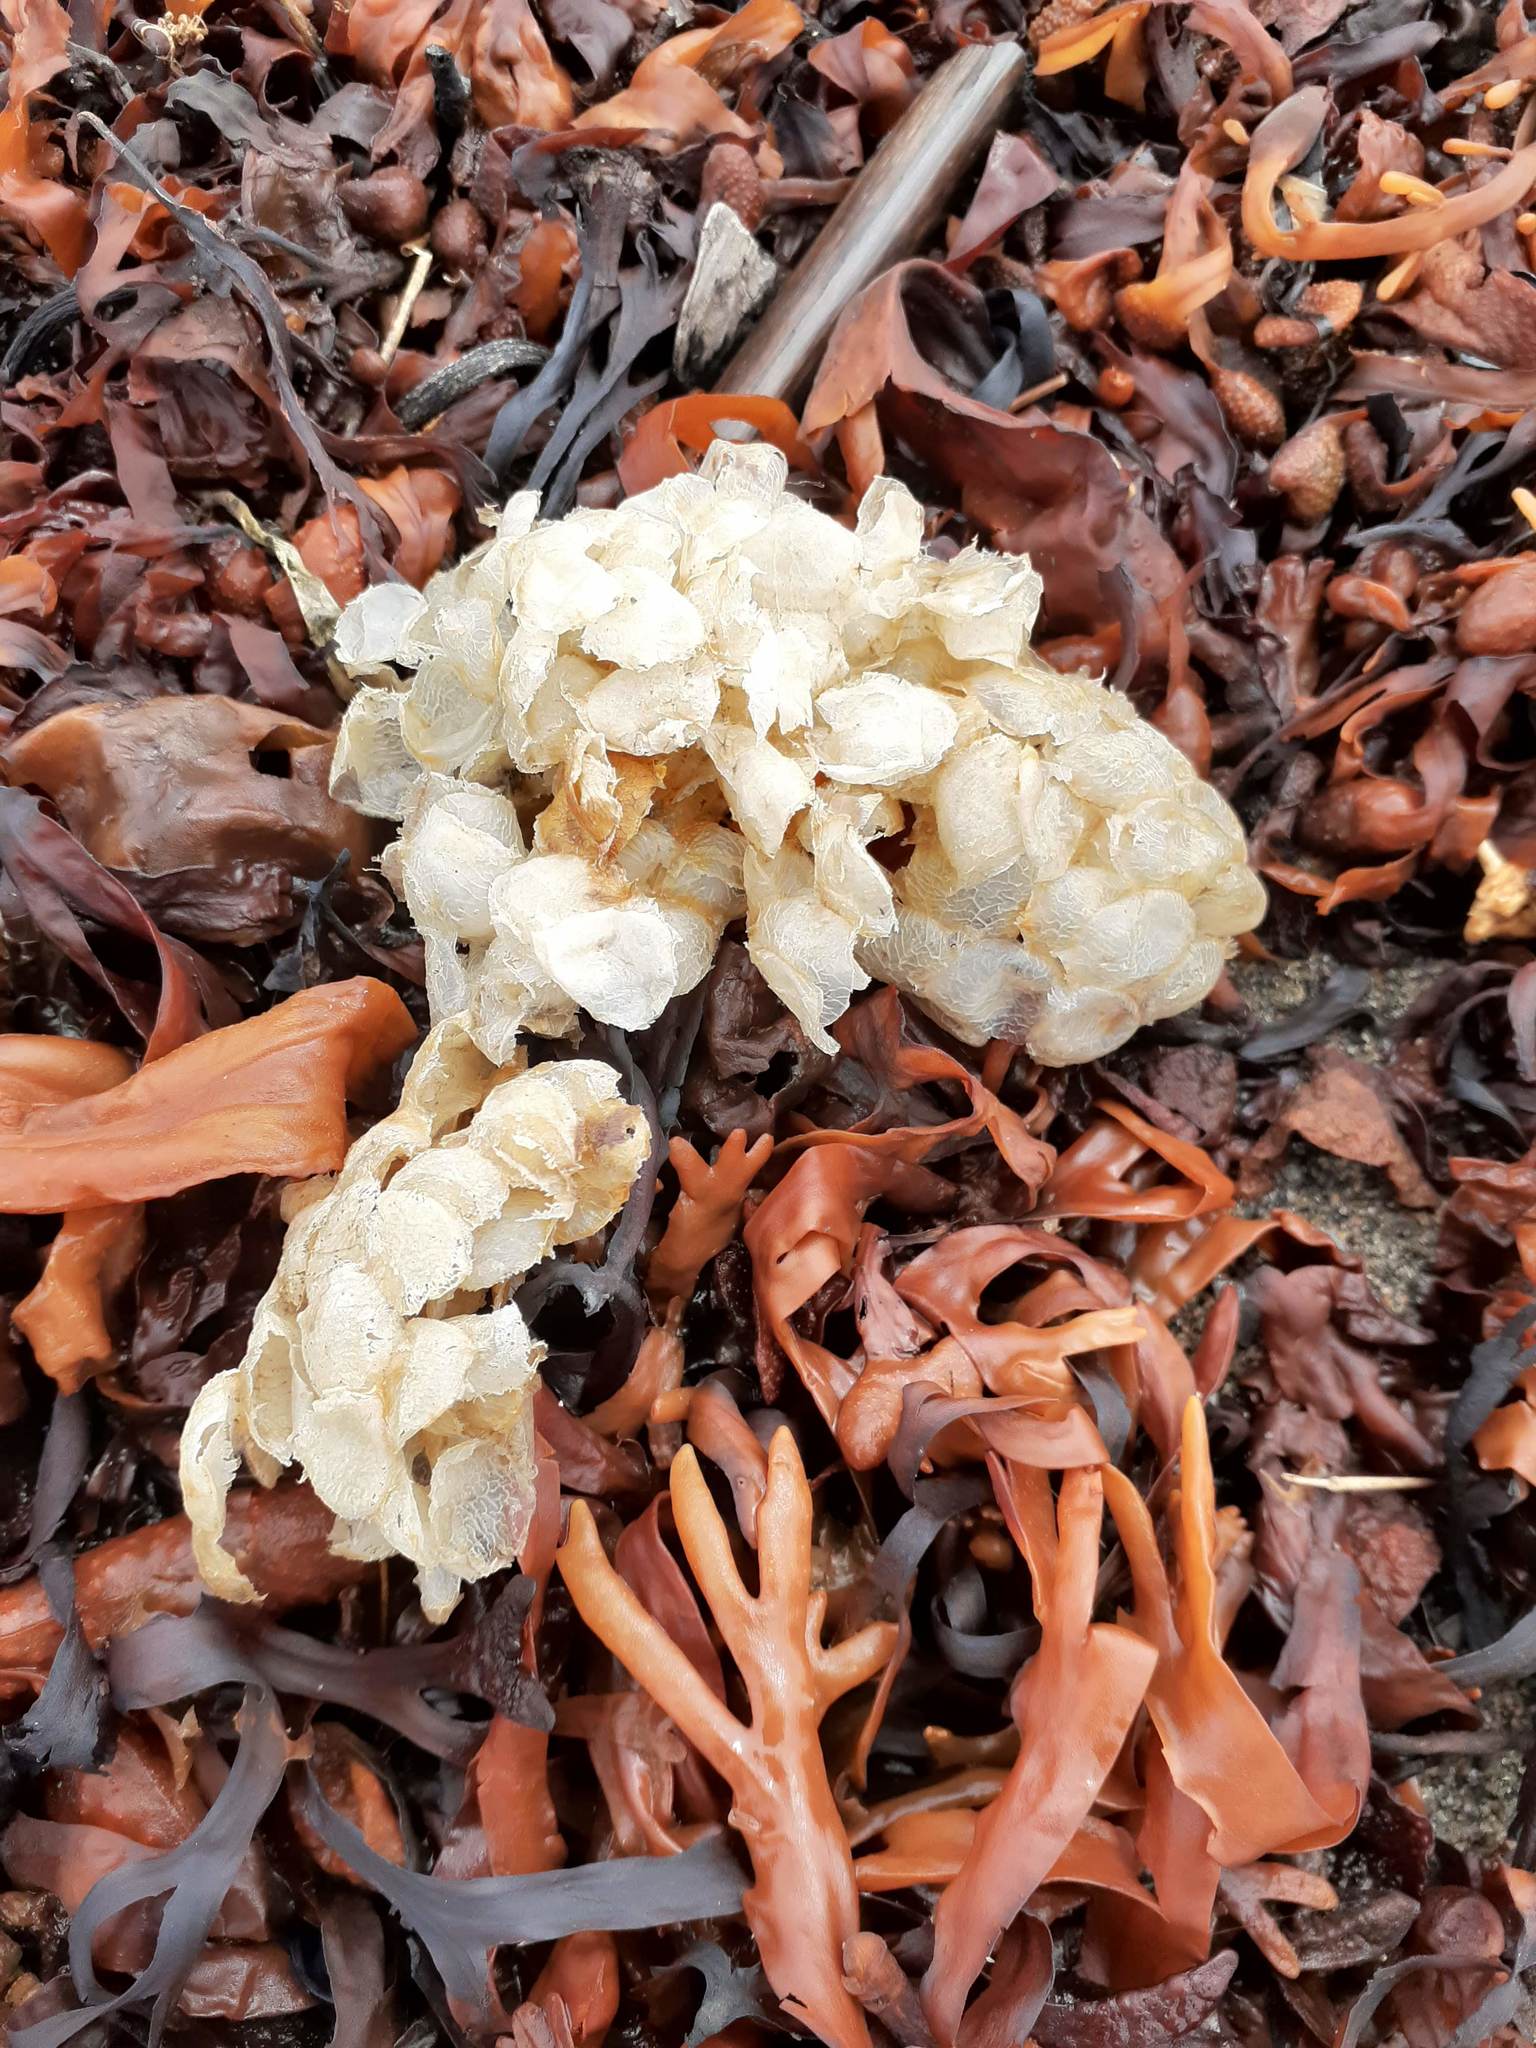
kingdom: Animalia
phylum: Mollusca
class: Gastropoda
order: Neogastropoda
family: Buccinidae
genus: Buccinum
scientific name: Buccinum undatum
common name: Common whelk
